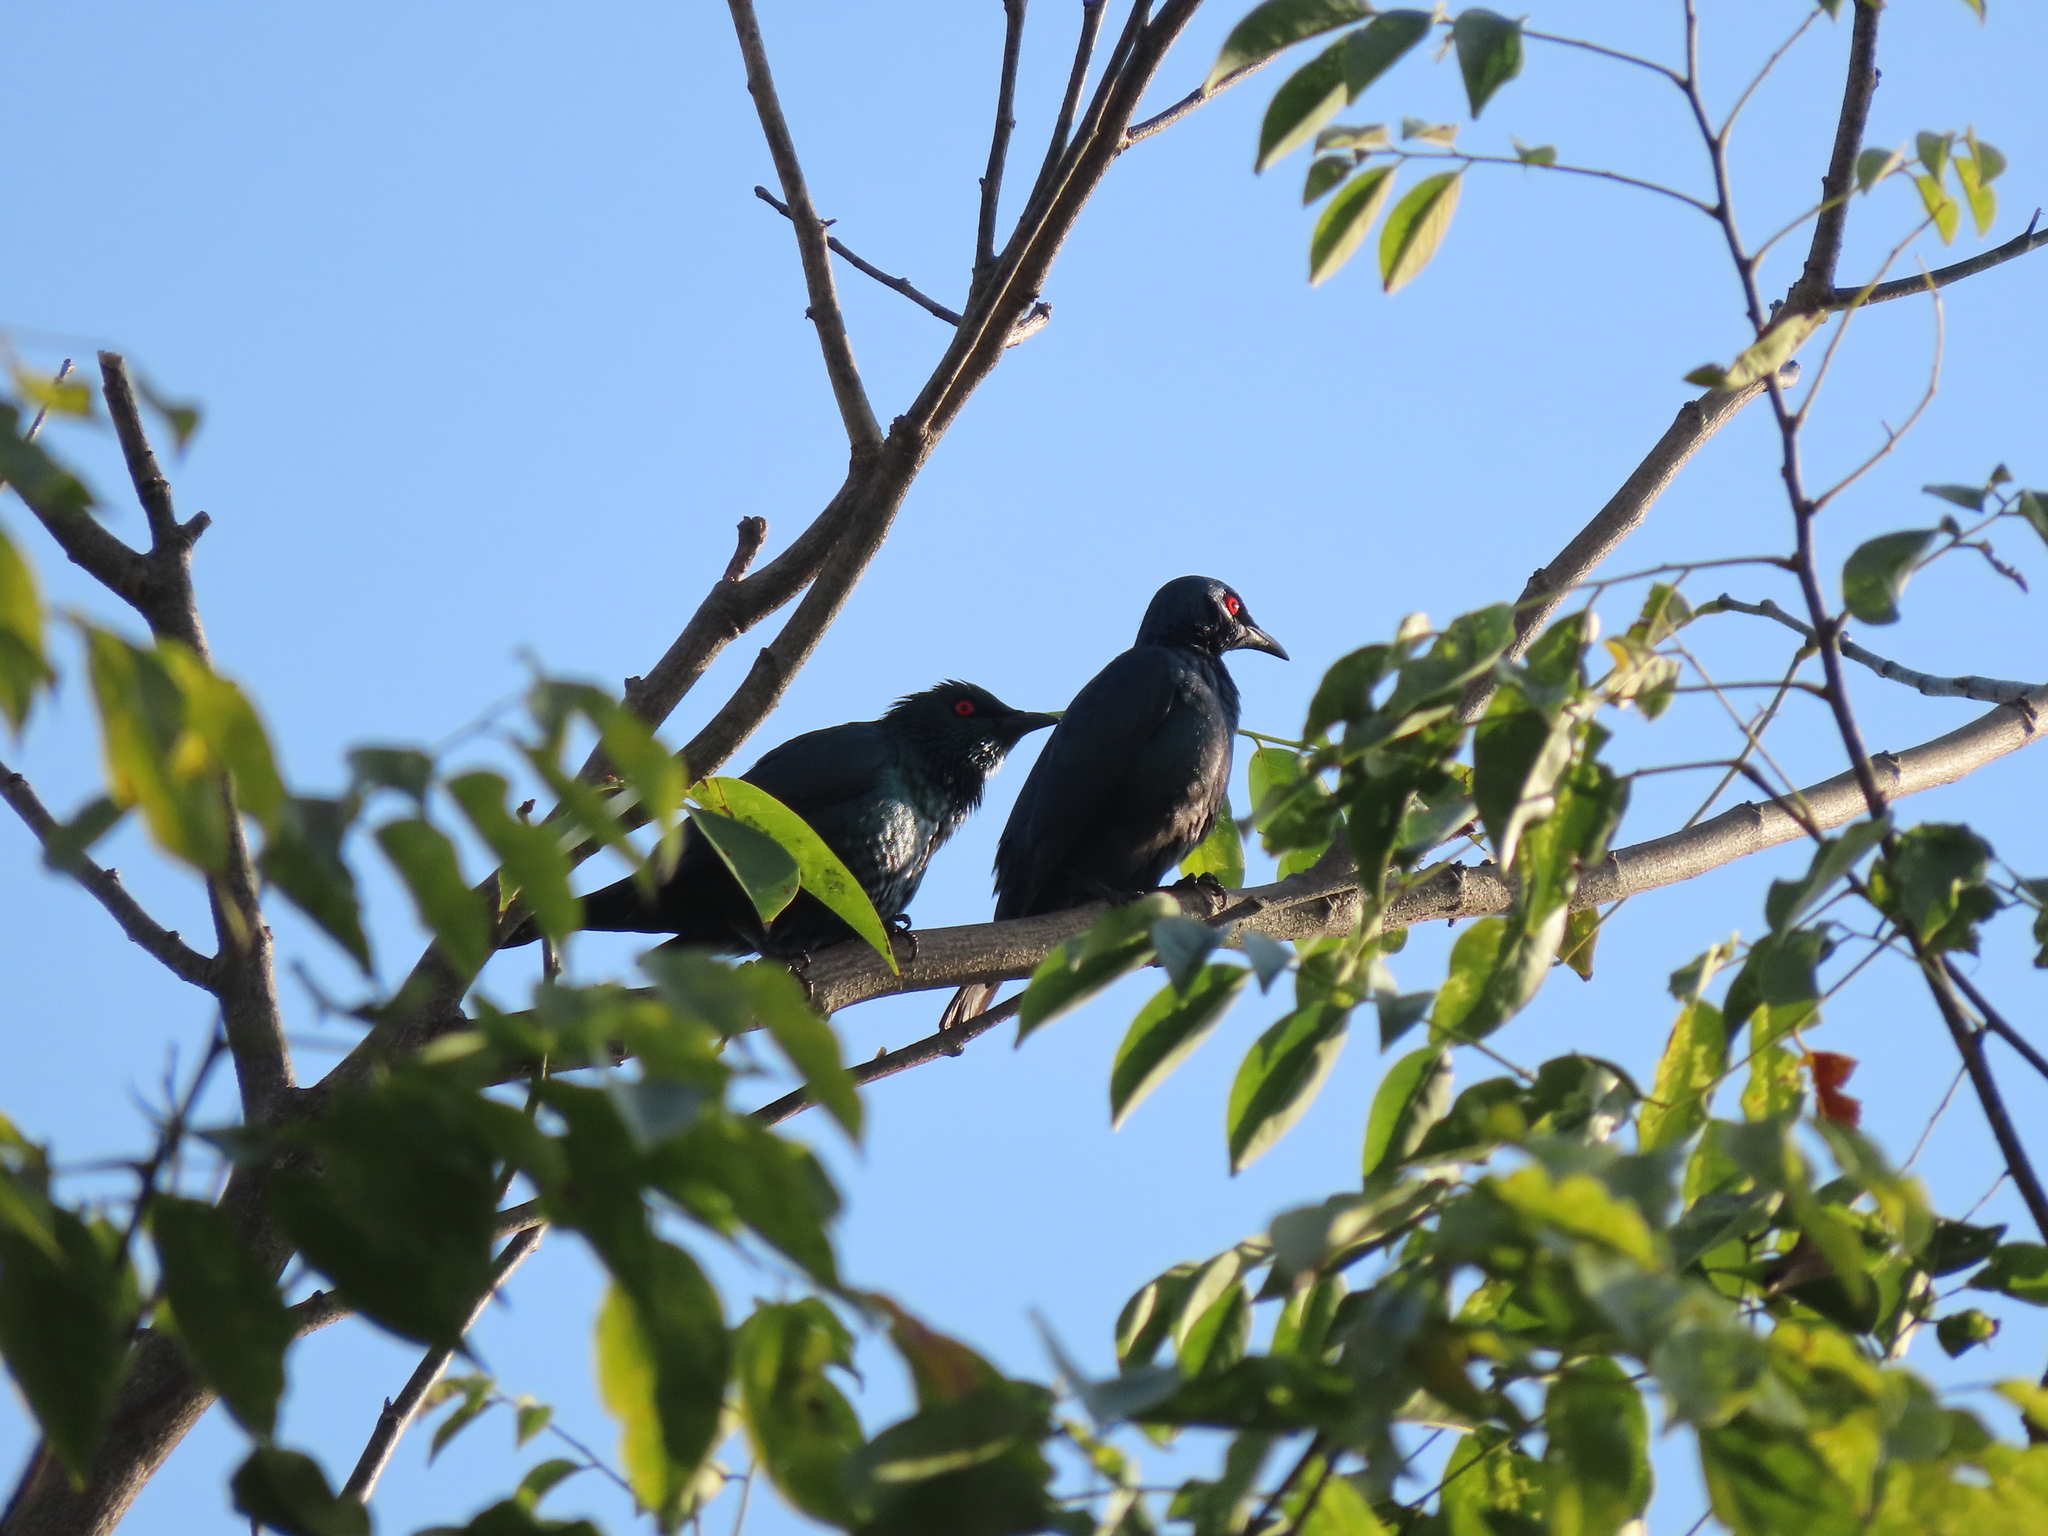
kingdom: Animalia
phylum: Chordata
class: Aves
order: Passeriformes
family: Sturnidae
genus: Aplonis
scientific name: Aplonis panayensis
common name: Asian glossy starling
